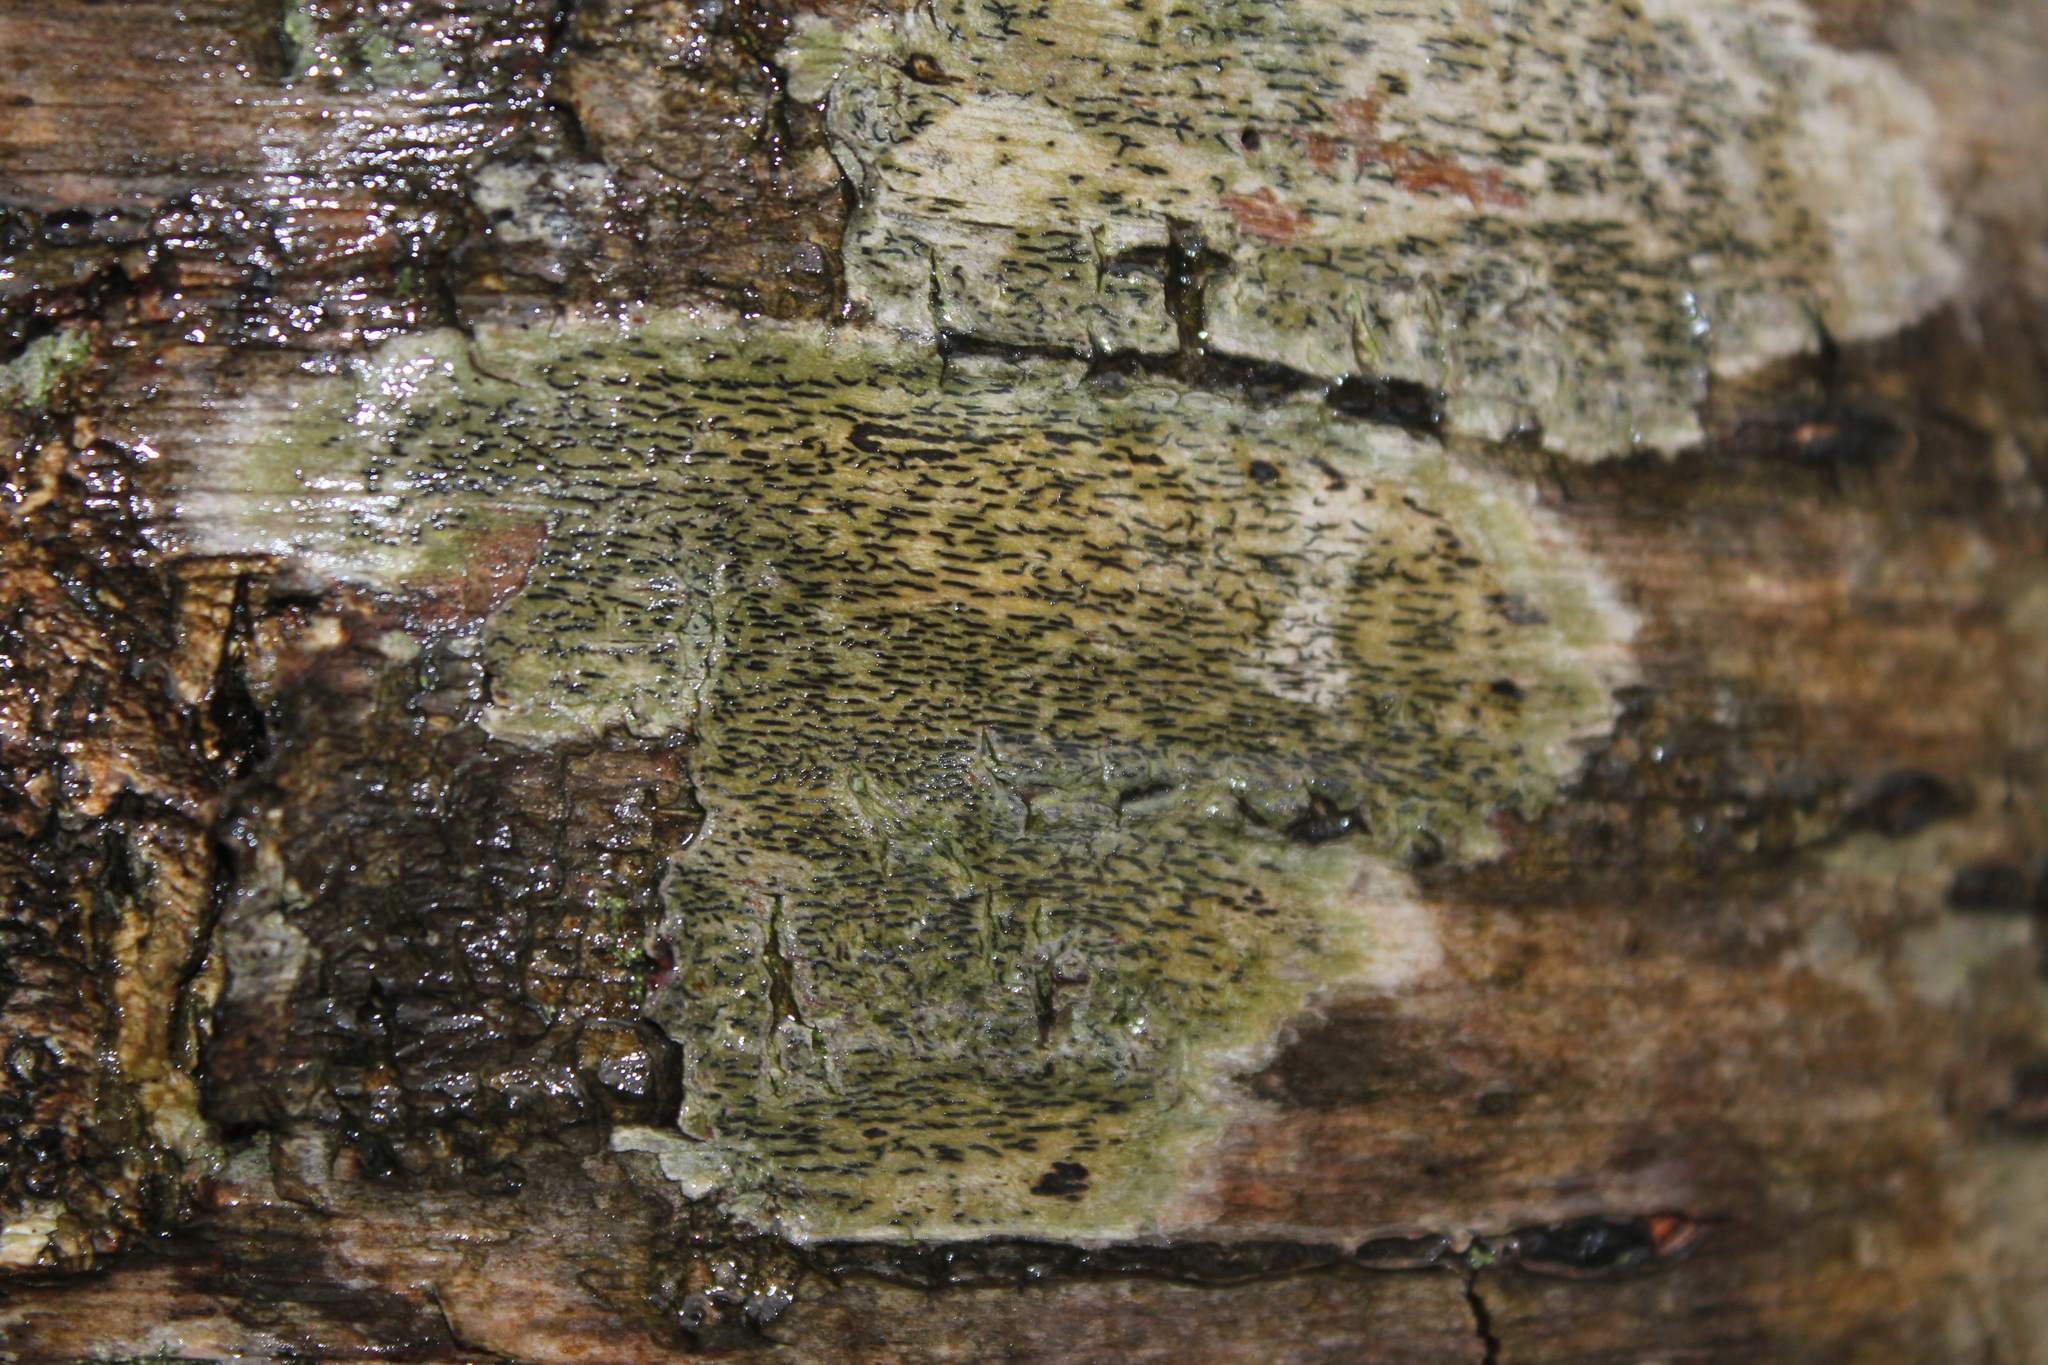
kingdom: Fungi
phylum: Ascomycota
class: Lecanoromycetes
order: Ostropales
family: Graphidaceae
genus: Graphis
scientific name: Graphis scripta
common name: Script lichen
